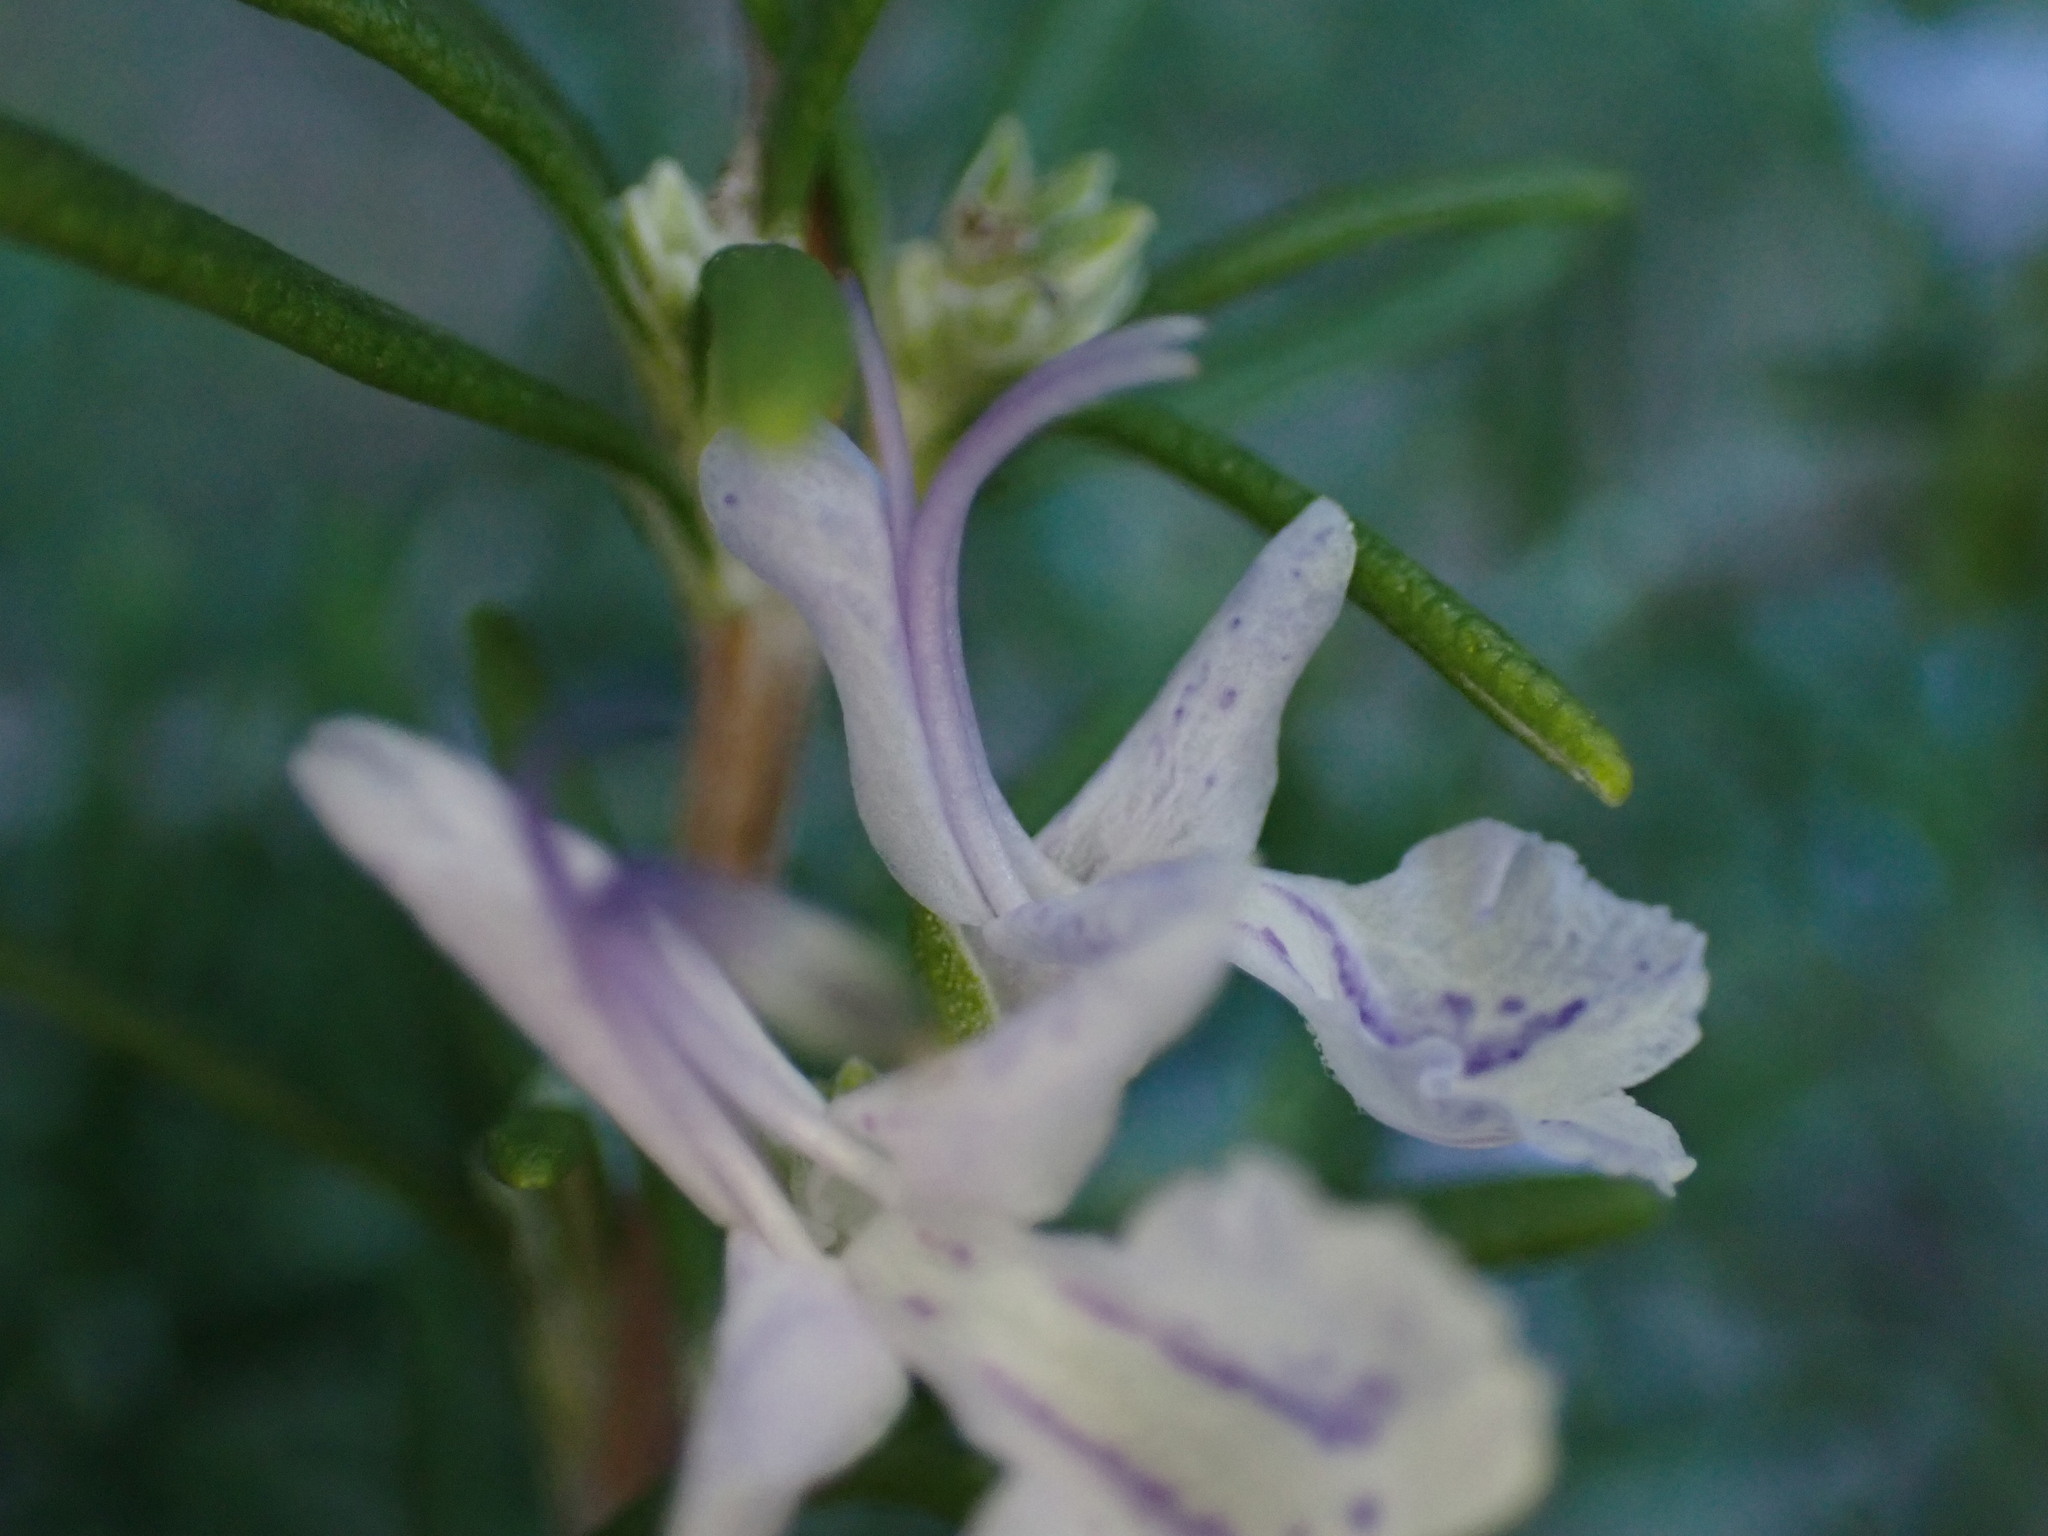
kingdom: Plantae
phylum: Tracheophyta
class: Magnoliopsida
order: Lamiales
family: Lamiaceae
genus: Salvia
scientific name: Salvia rosmarinus
